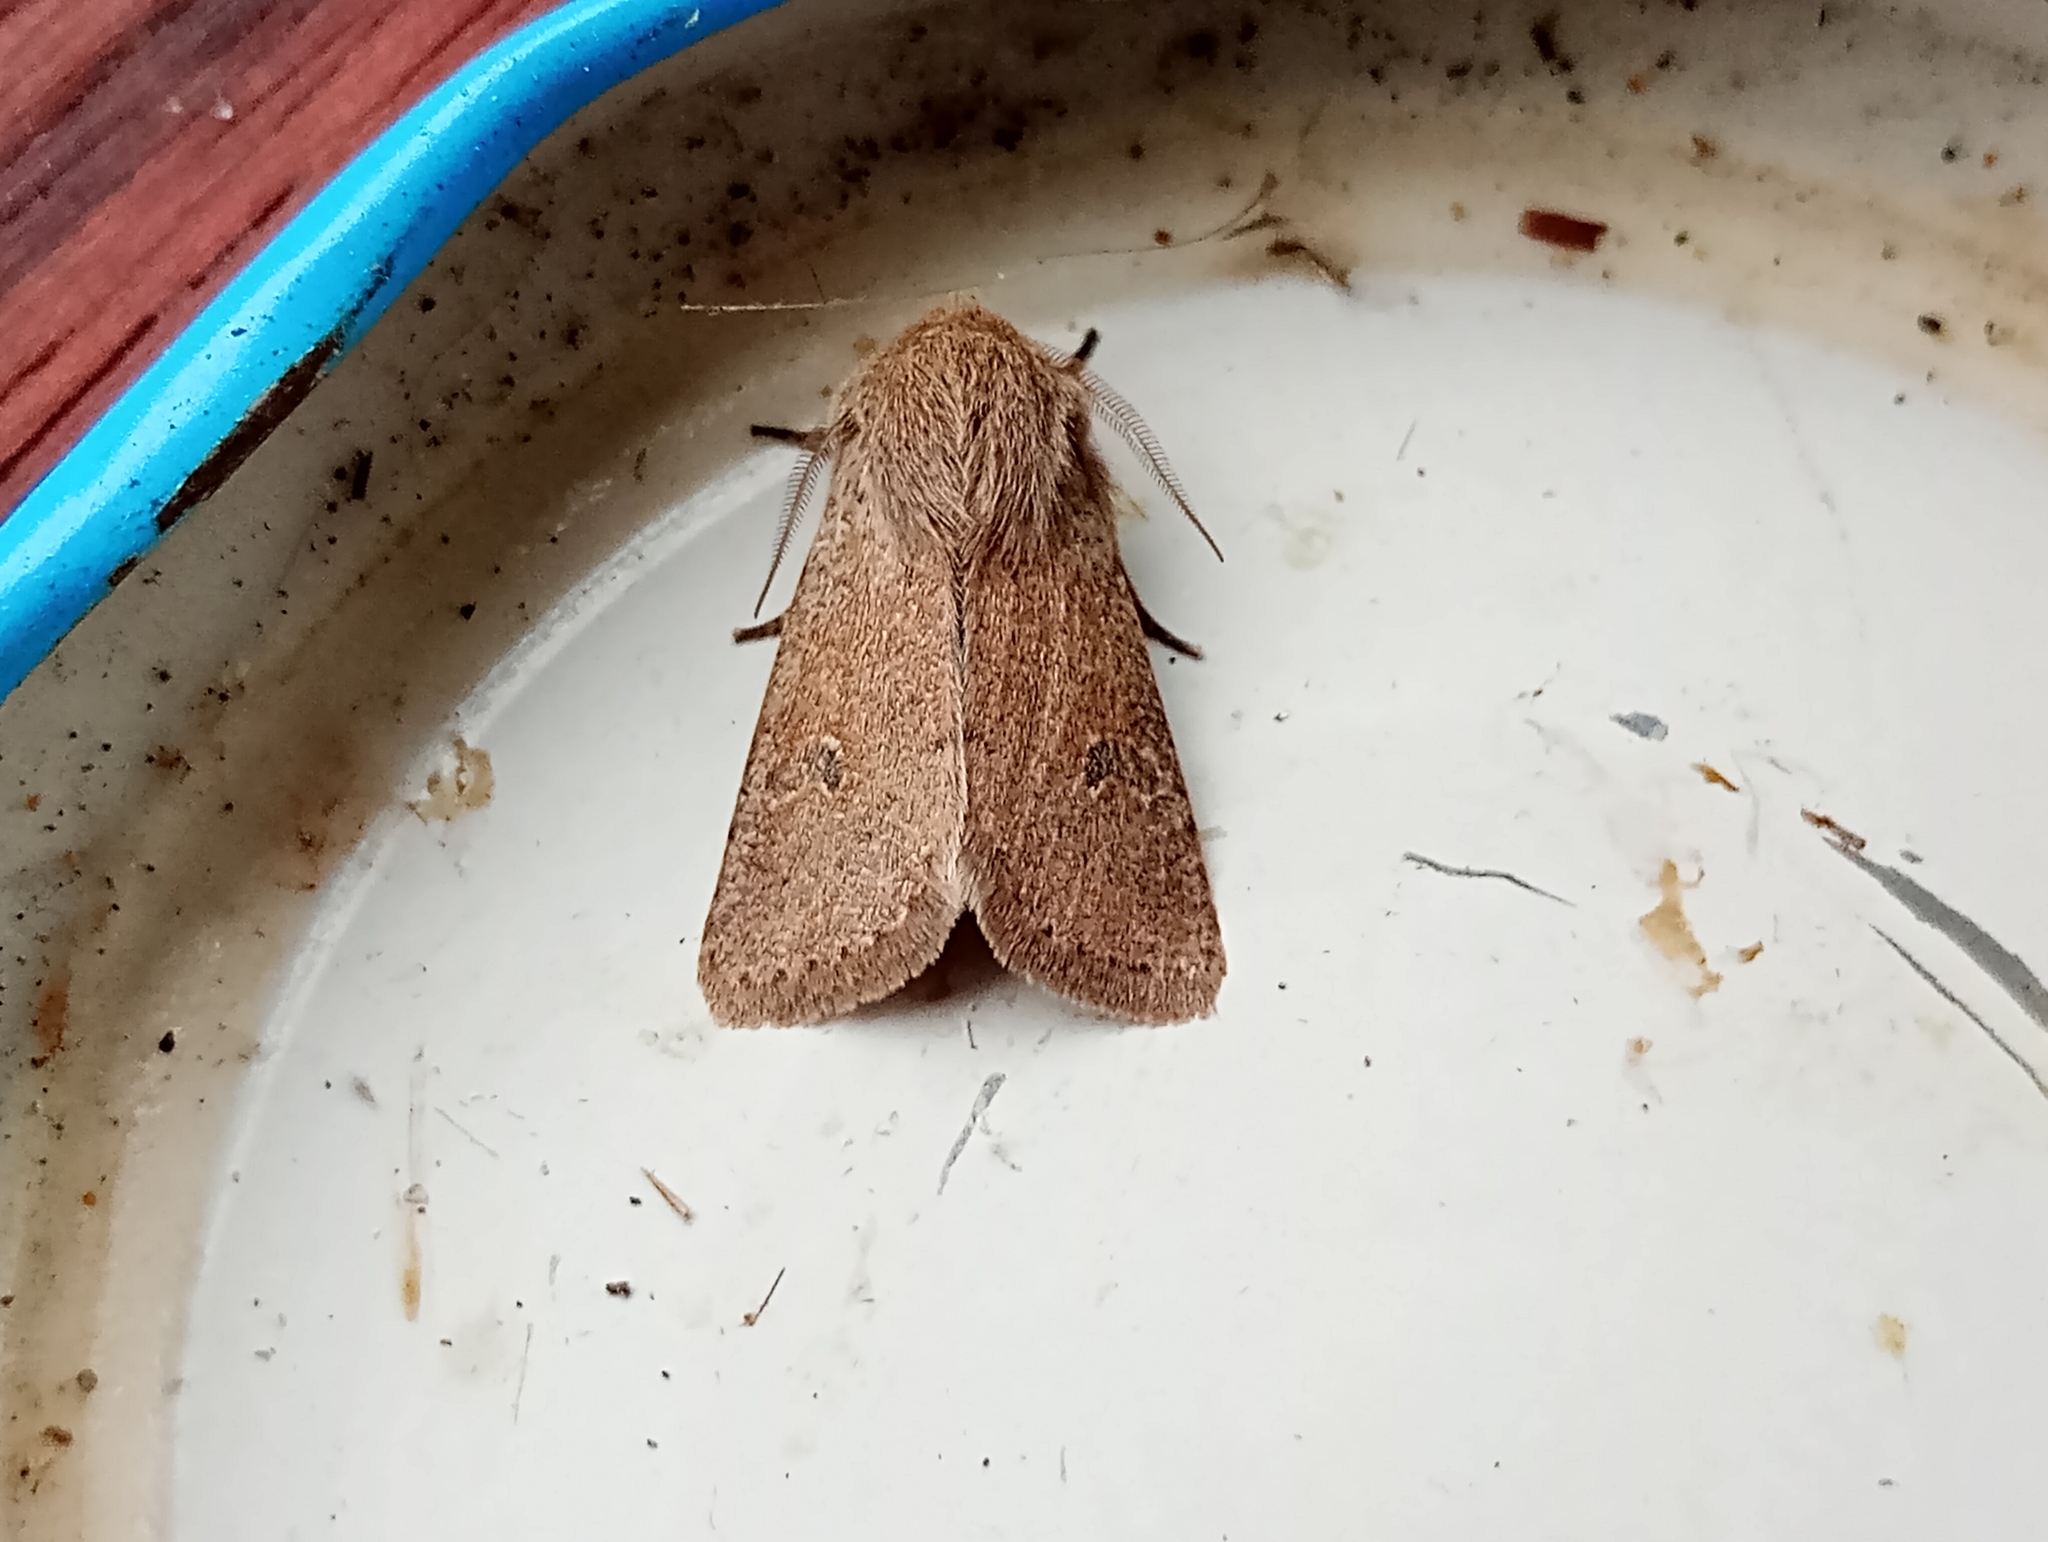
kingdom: Animalia
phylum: Arthropoda
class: Insecta
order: Lepidoptera
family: Noctuidae
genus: Orthosia
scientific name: Orthosia cruda
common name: Small quaker
